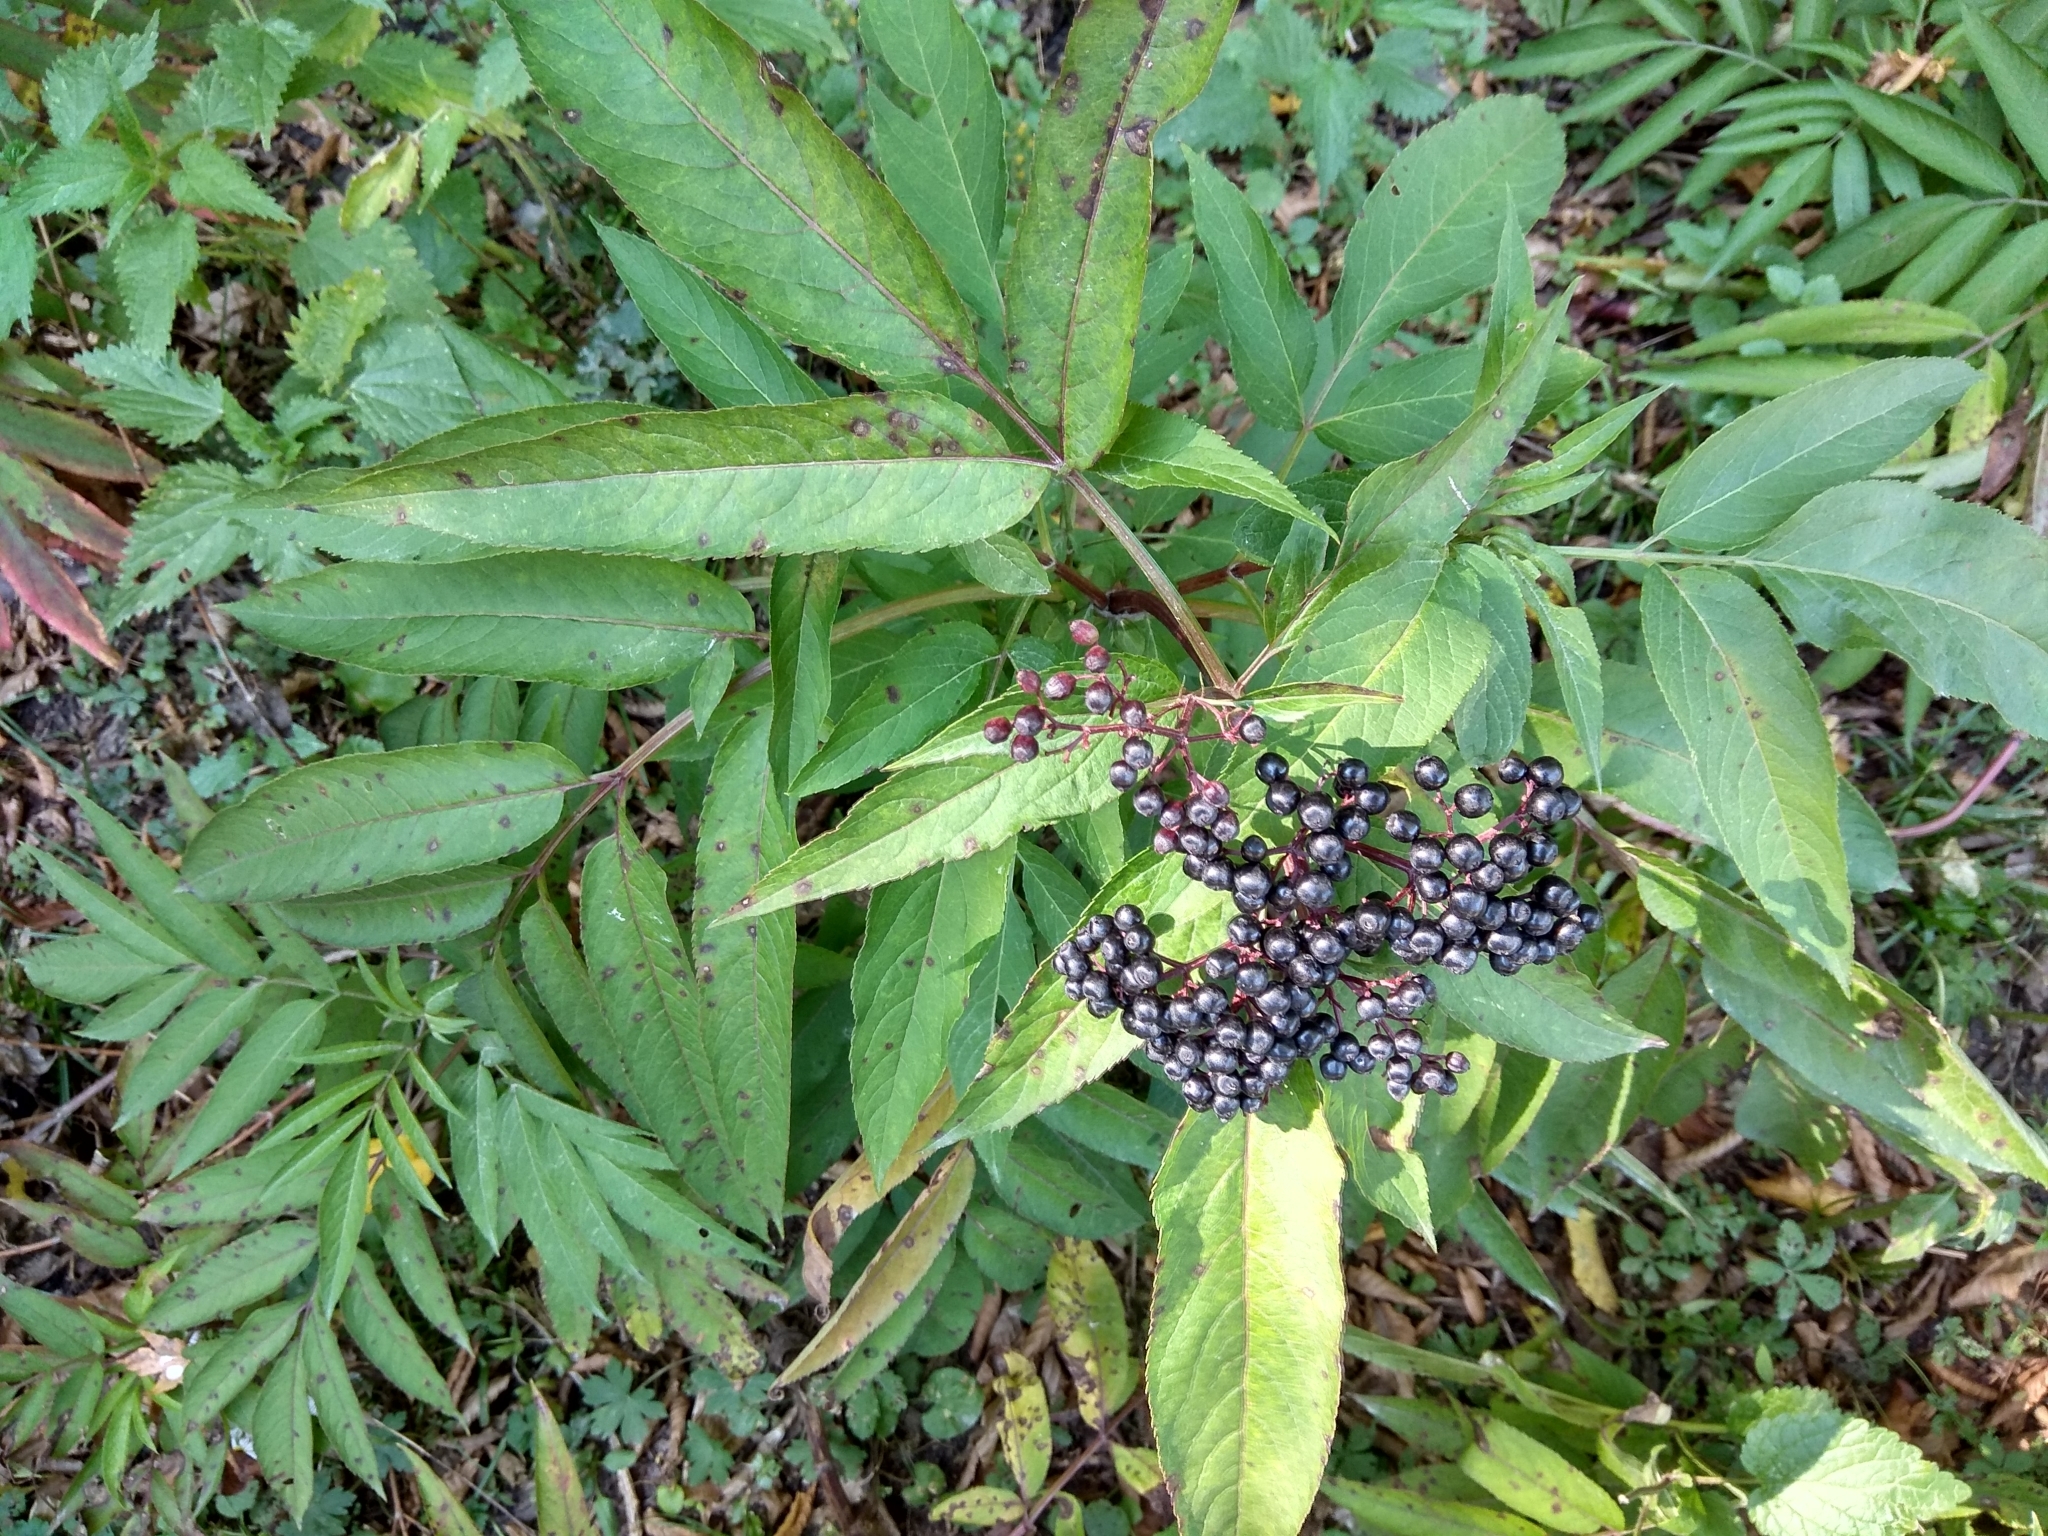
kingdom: Plantae
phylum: Tracheophyta
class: Magnoliopsida
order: Dipsacales
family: Viburnaceae
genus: Sambucus
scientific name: Sambucus ebulus
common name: Dwarf elder
